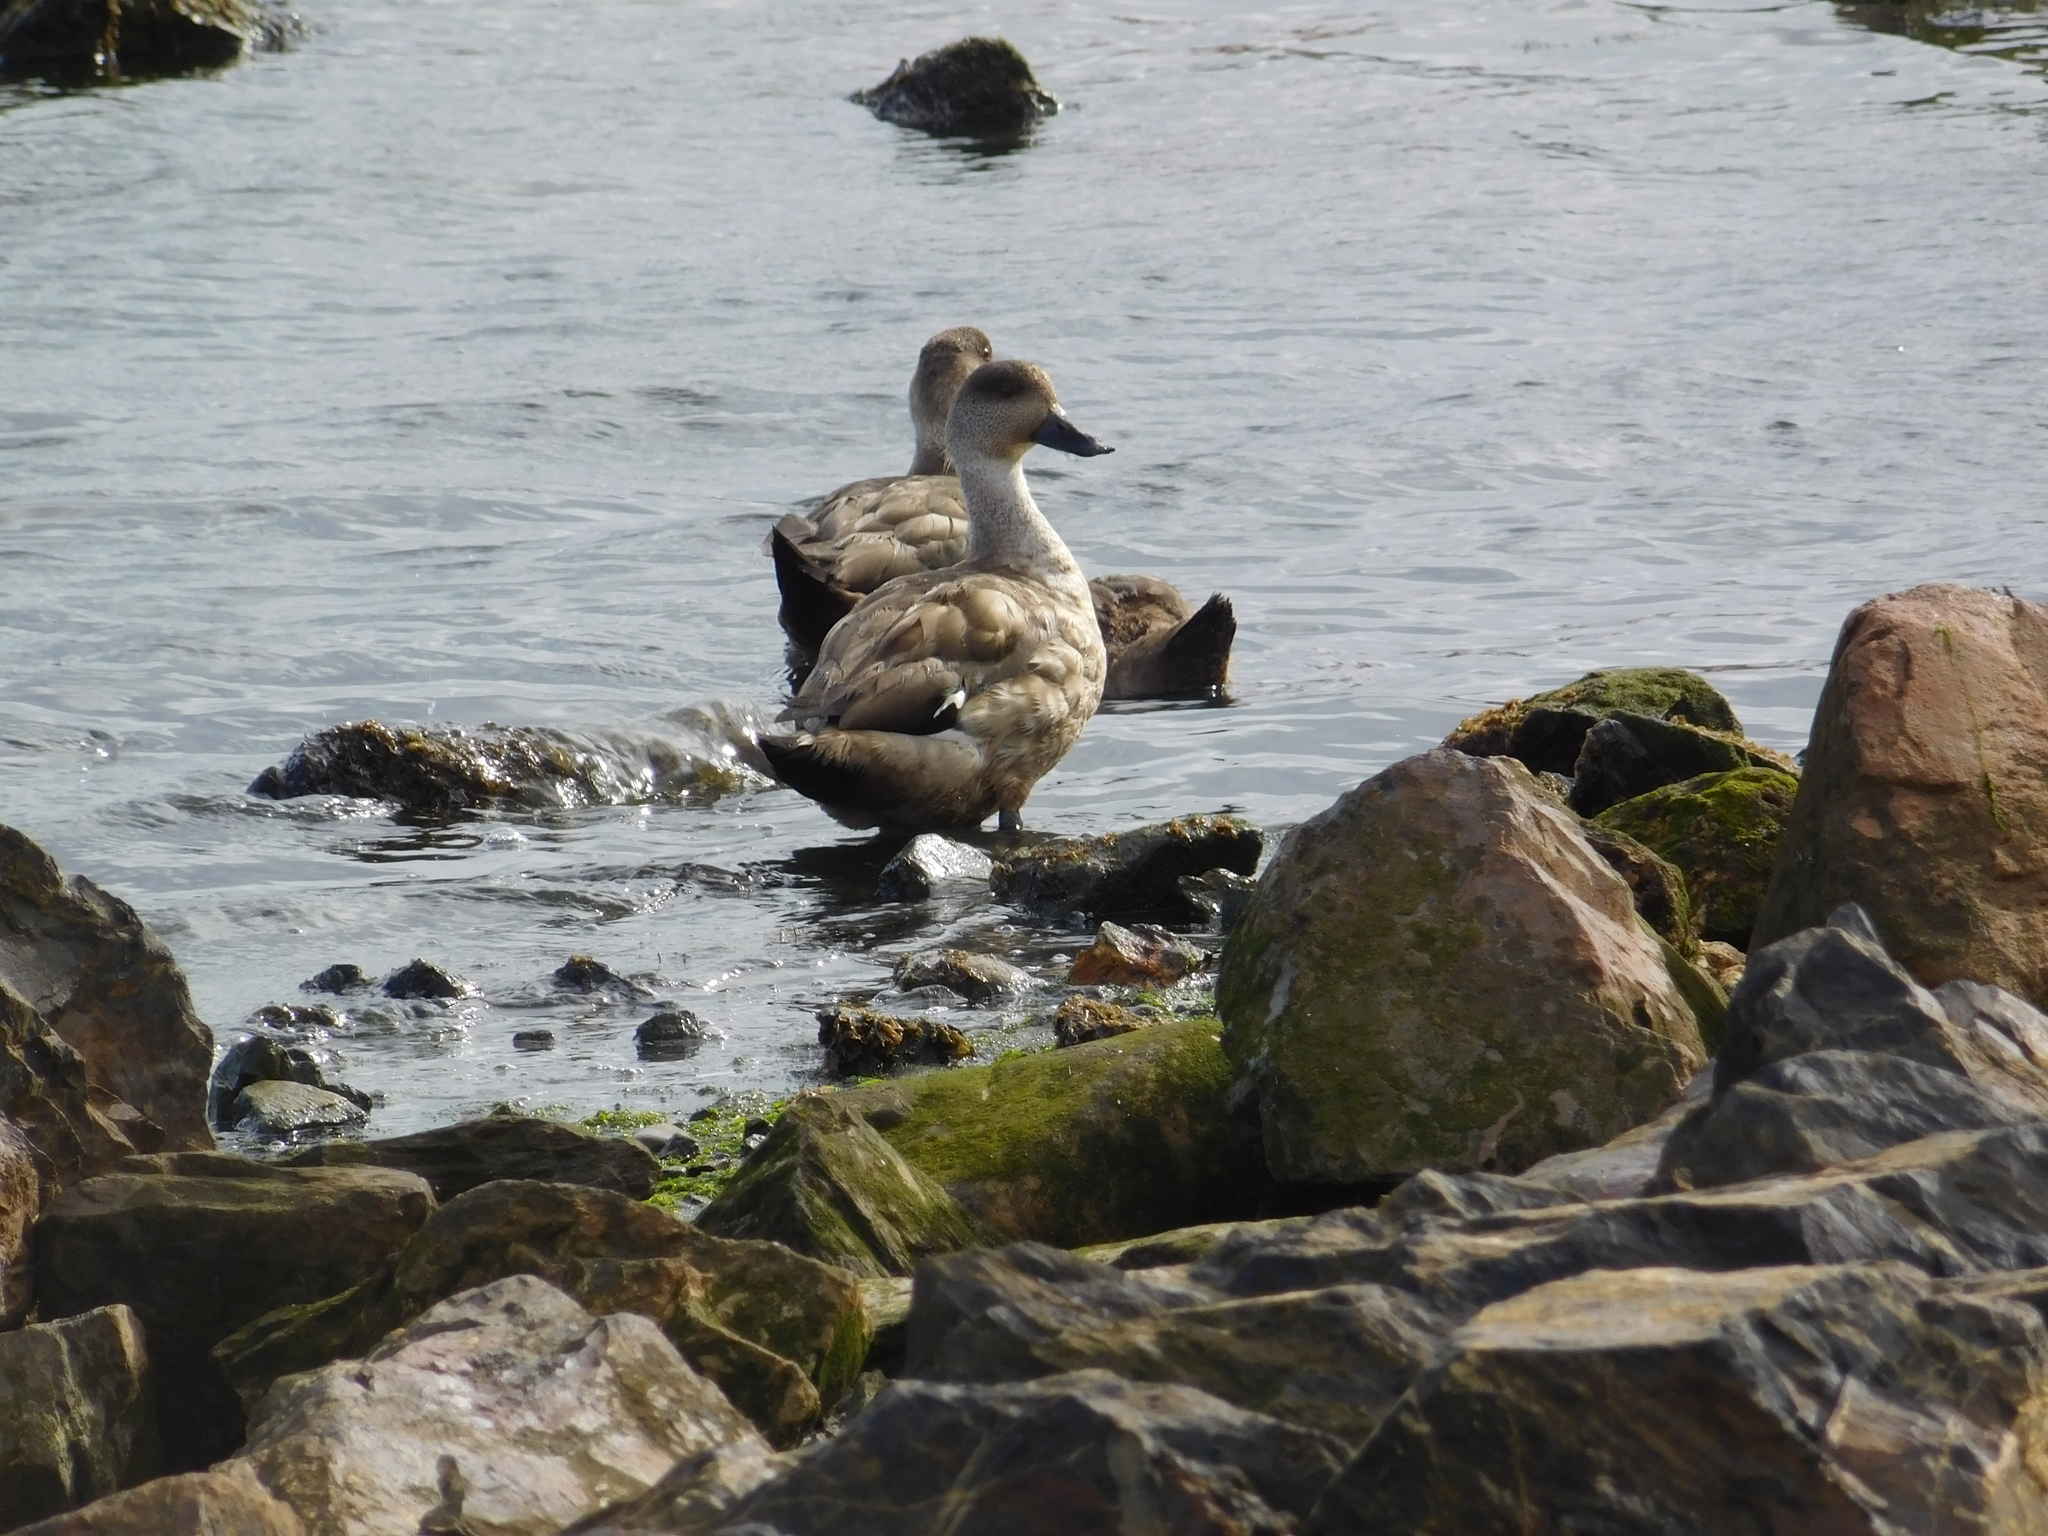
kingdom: Animalia
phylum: Chordata
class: Aves
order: Anseriformes
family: Anatidae
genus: Lophonetta
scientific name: Lophonetta specularioides
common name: Crested duck
